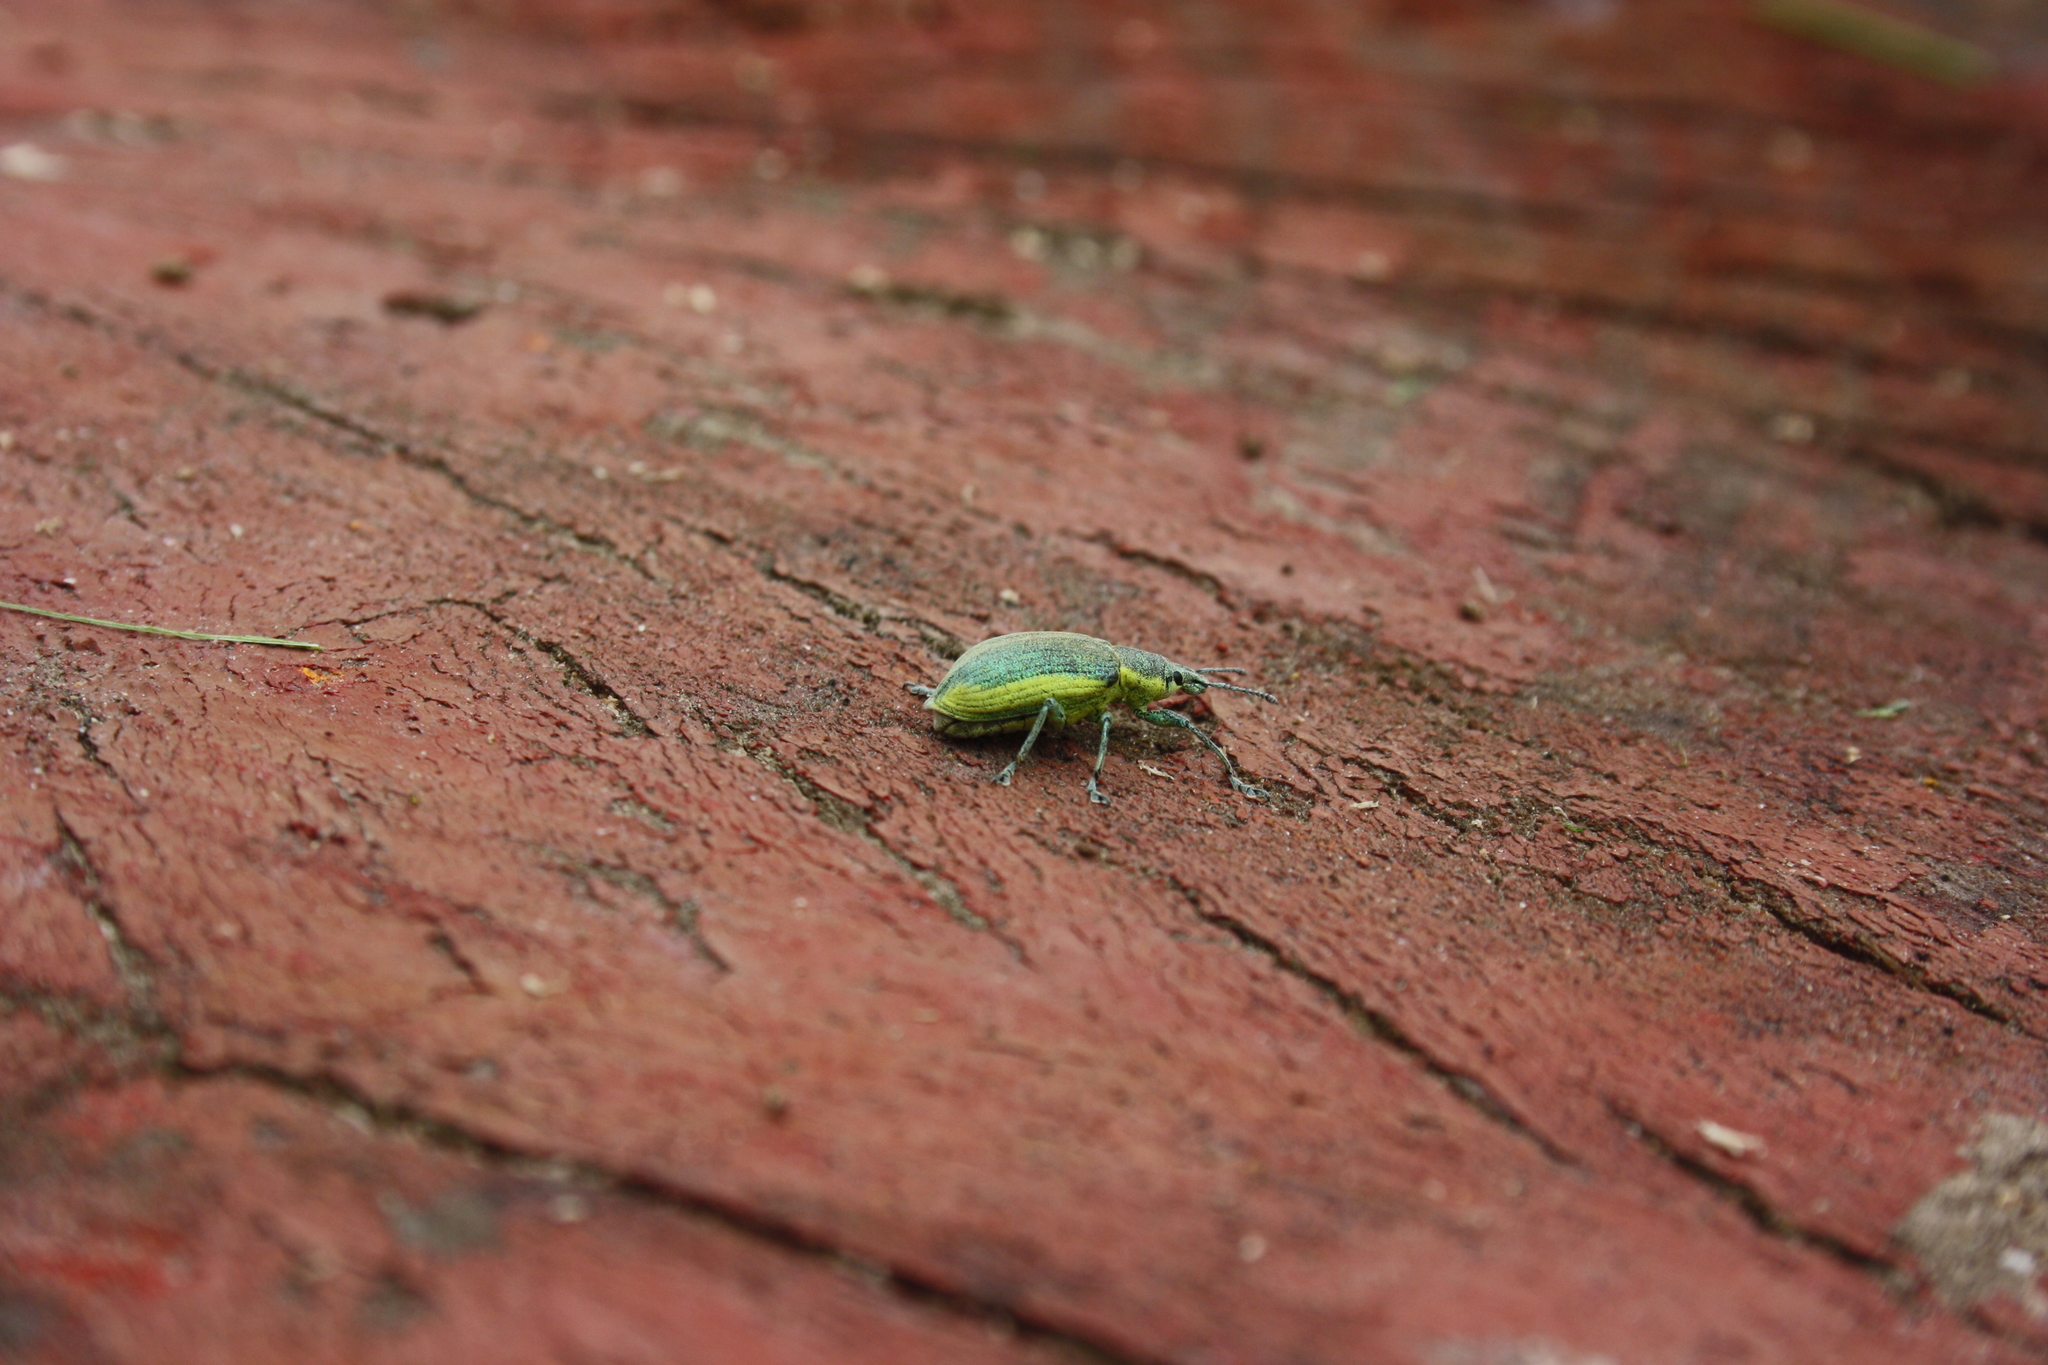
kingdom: Animalia
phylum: Arthropoda
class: Insecta
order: Coleoptera
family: Curculionidae
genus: Chlorophanus
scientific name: Chlorophanus viridis
